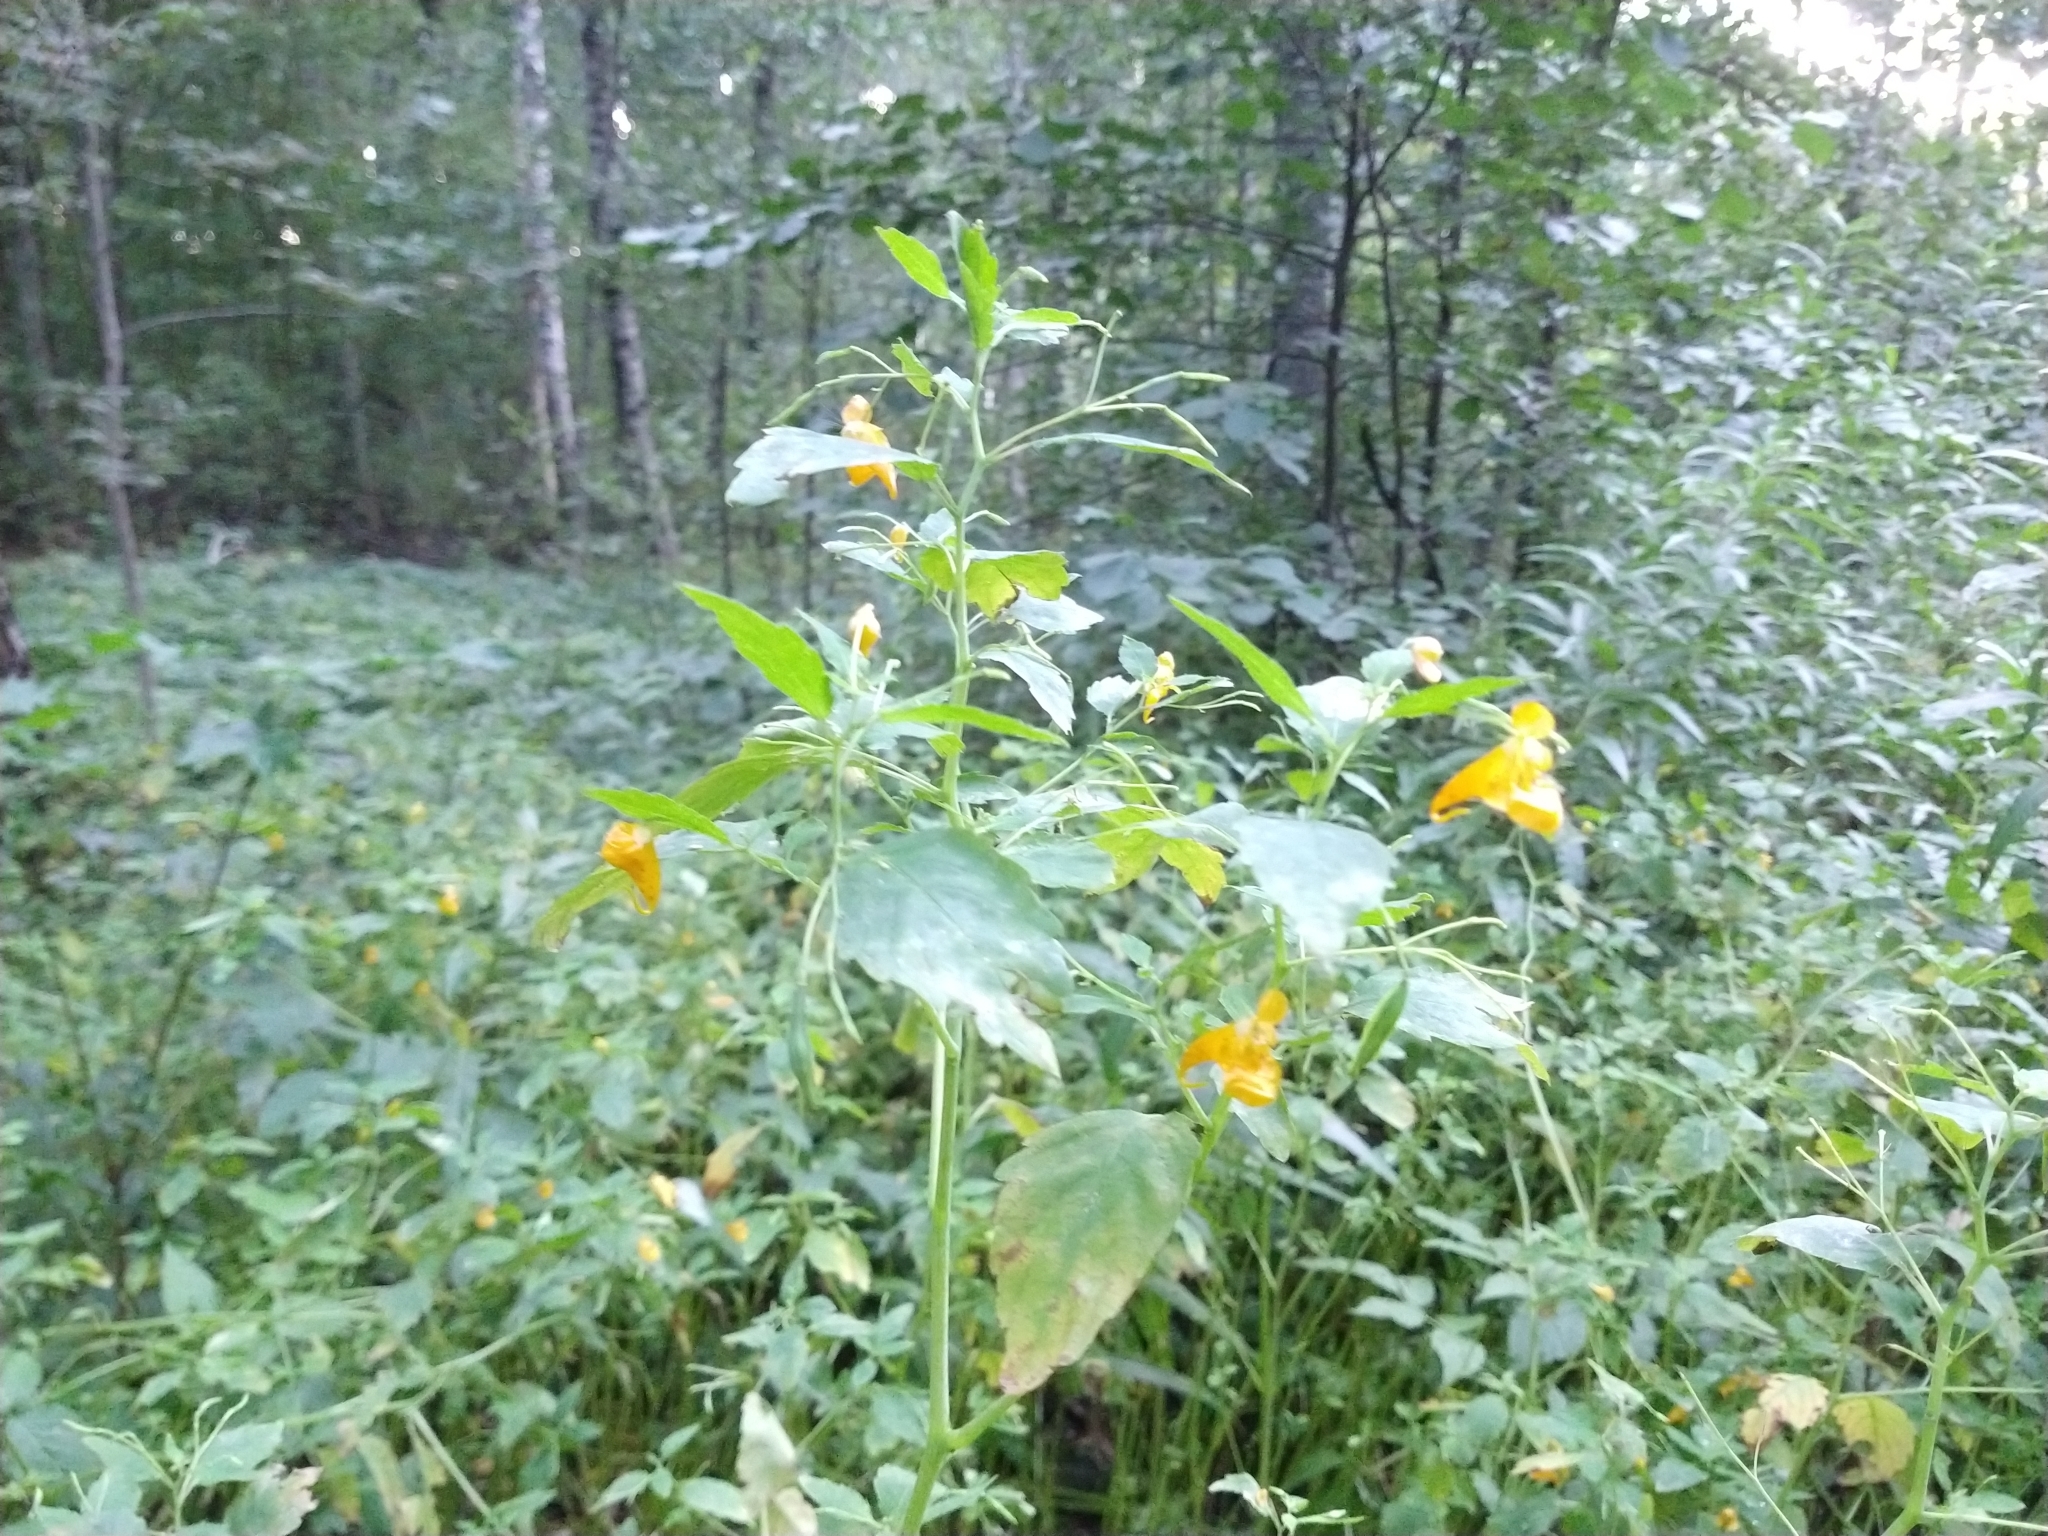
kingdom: Plantae
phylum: Tracheophyta
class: Magnoliopsida
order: Ericales
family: Balsaminaceae
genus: Impatiens
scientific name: Impatiens noli-tangere
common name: Touch-me-not balsam
